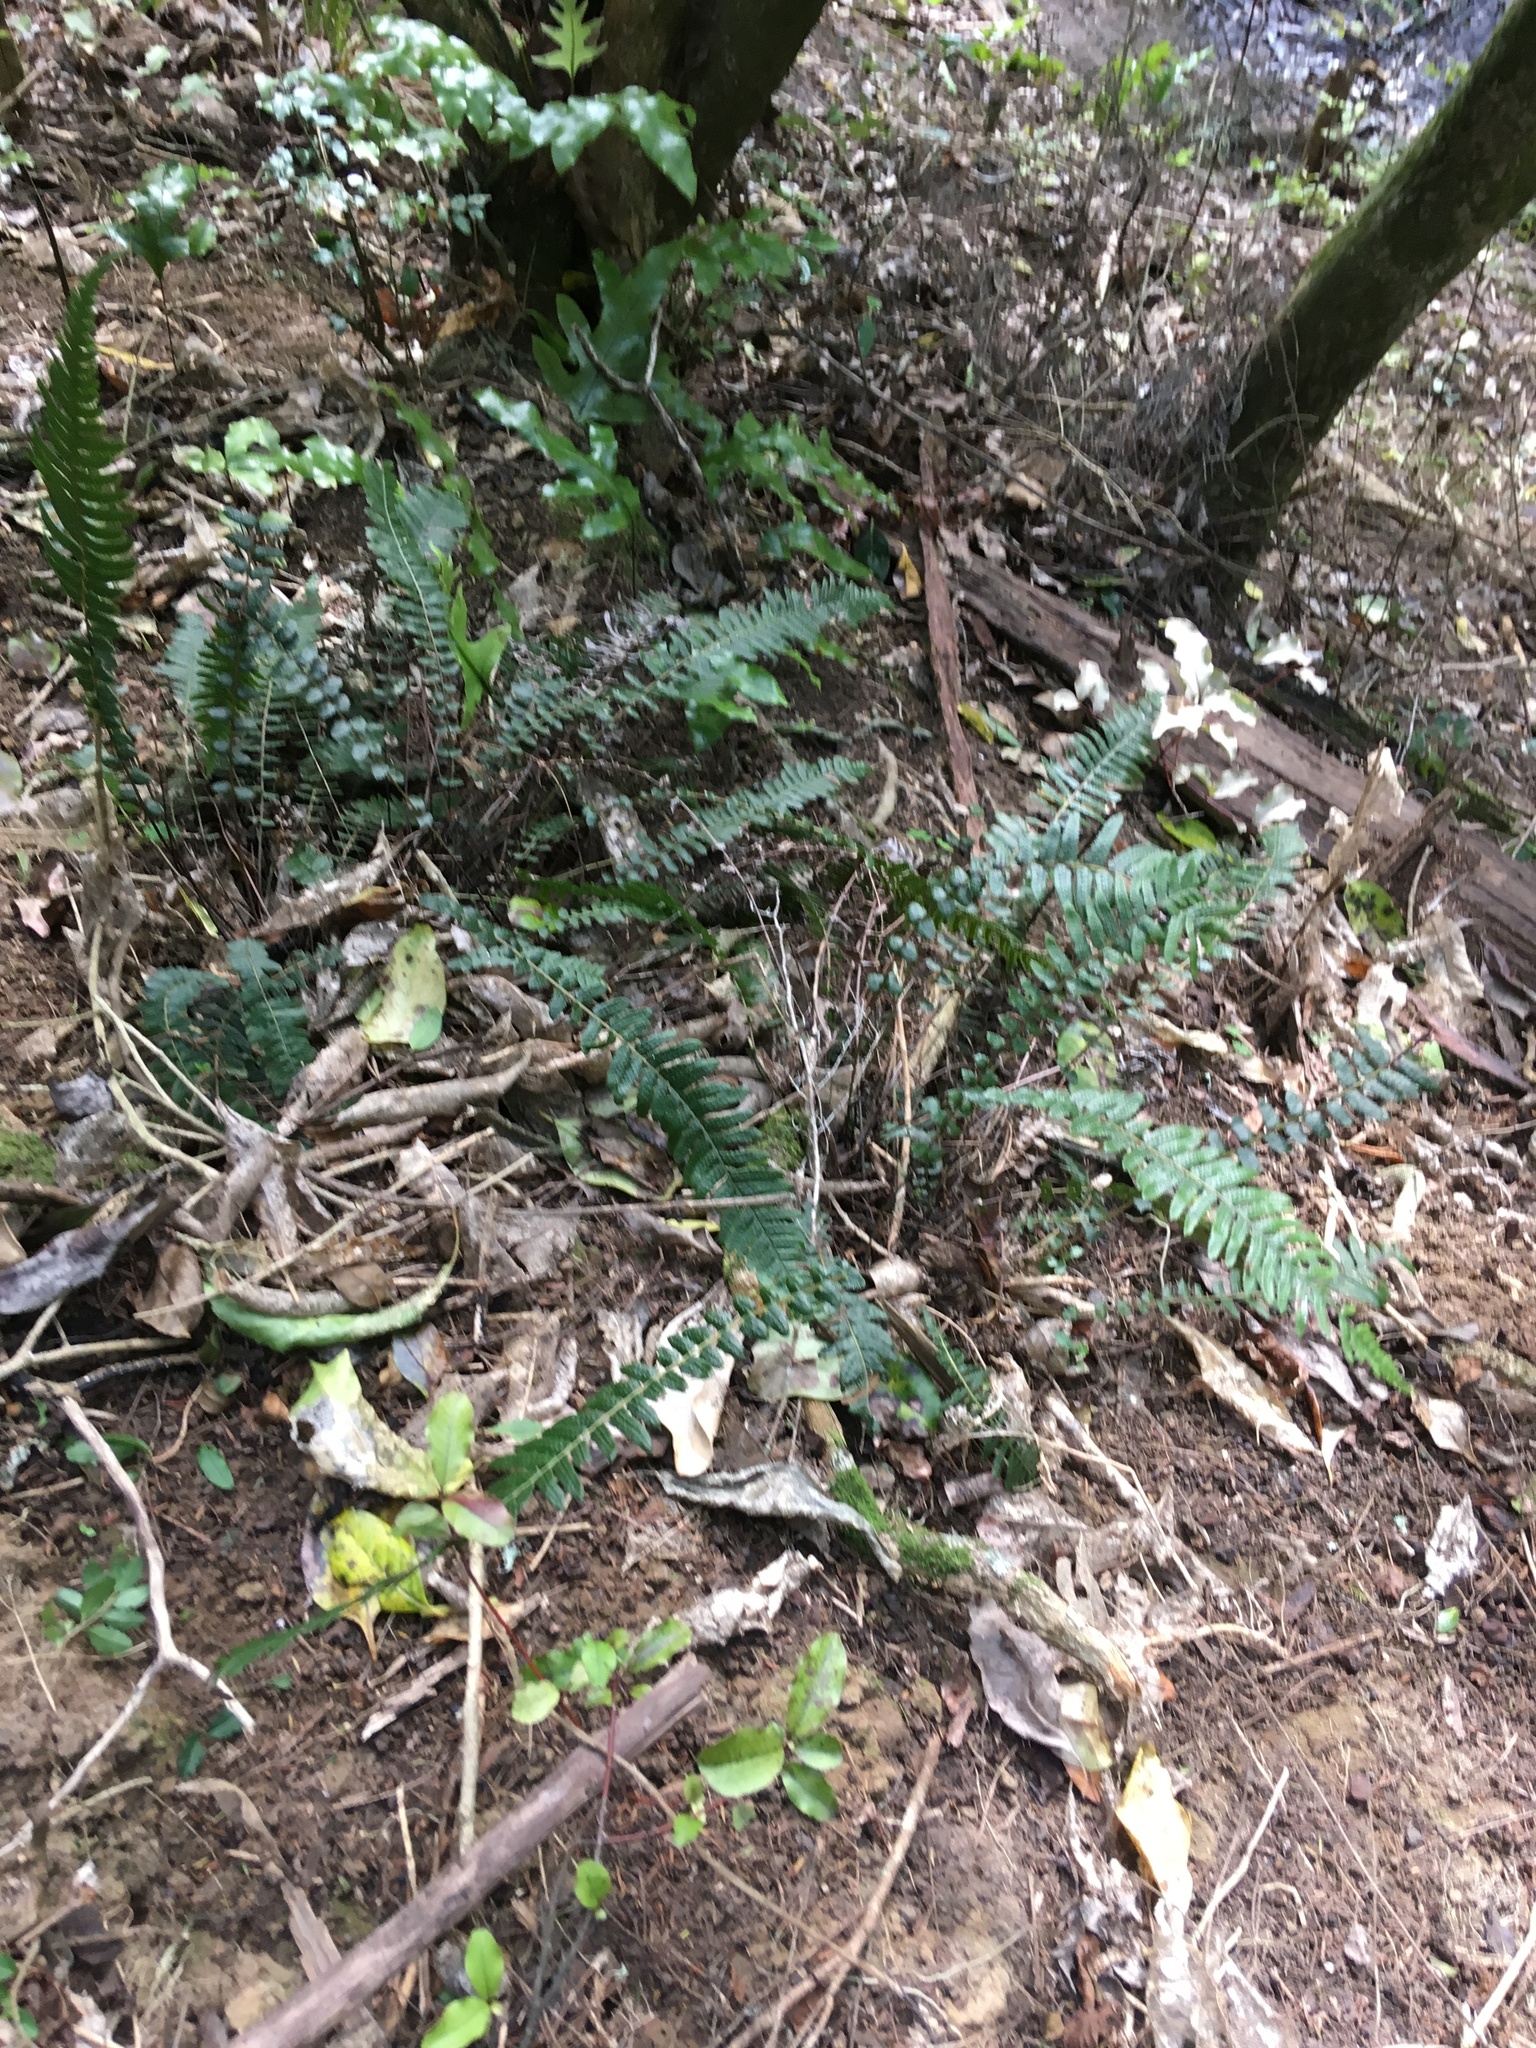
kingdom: Plantae
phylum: Tracheophyta
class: Polypodiopsida
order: Polypodiales
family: Blechnaceae
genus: Doodia
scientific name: Doodia australis
